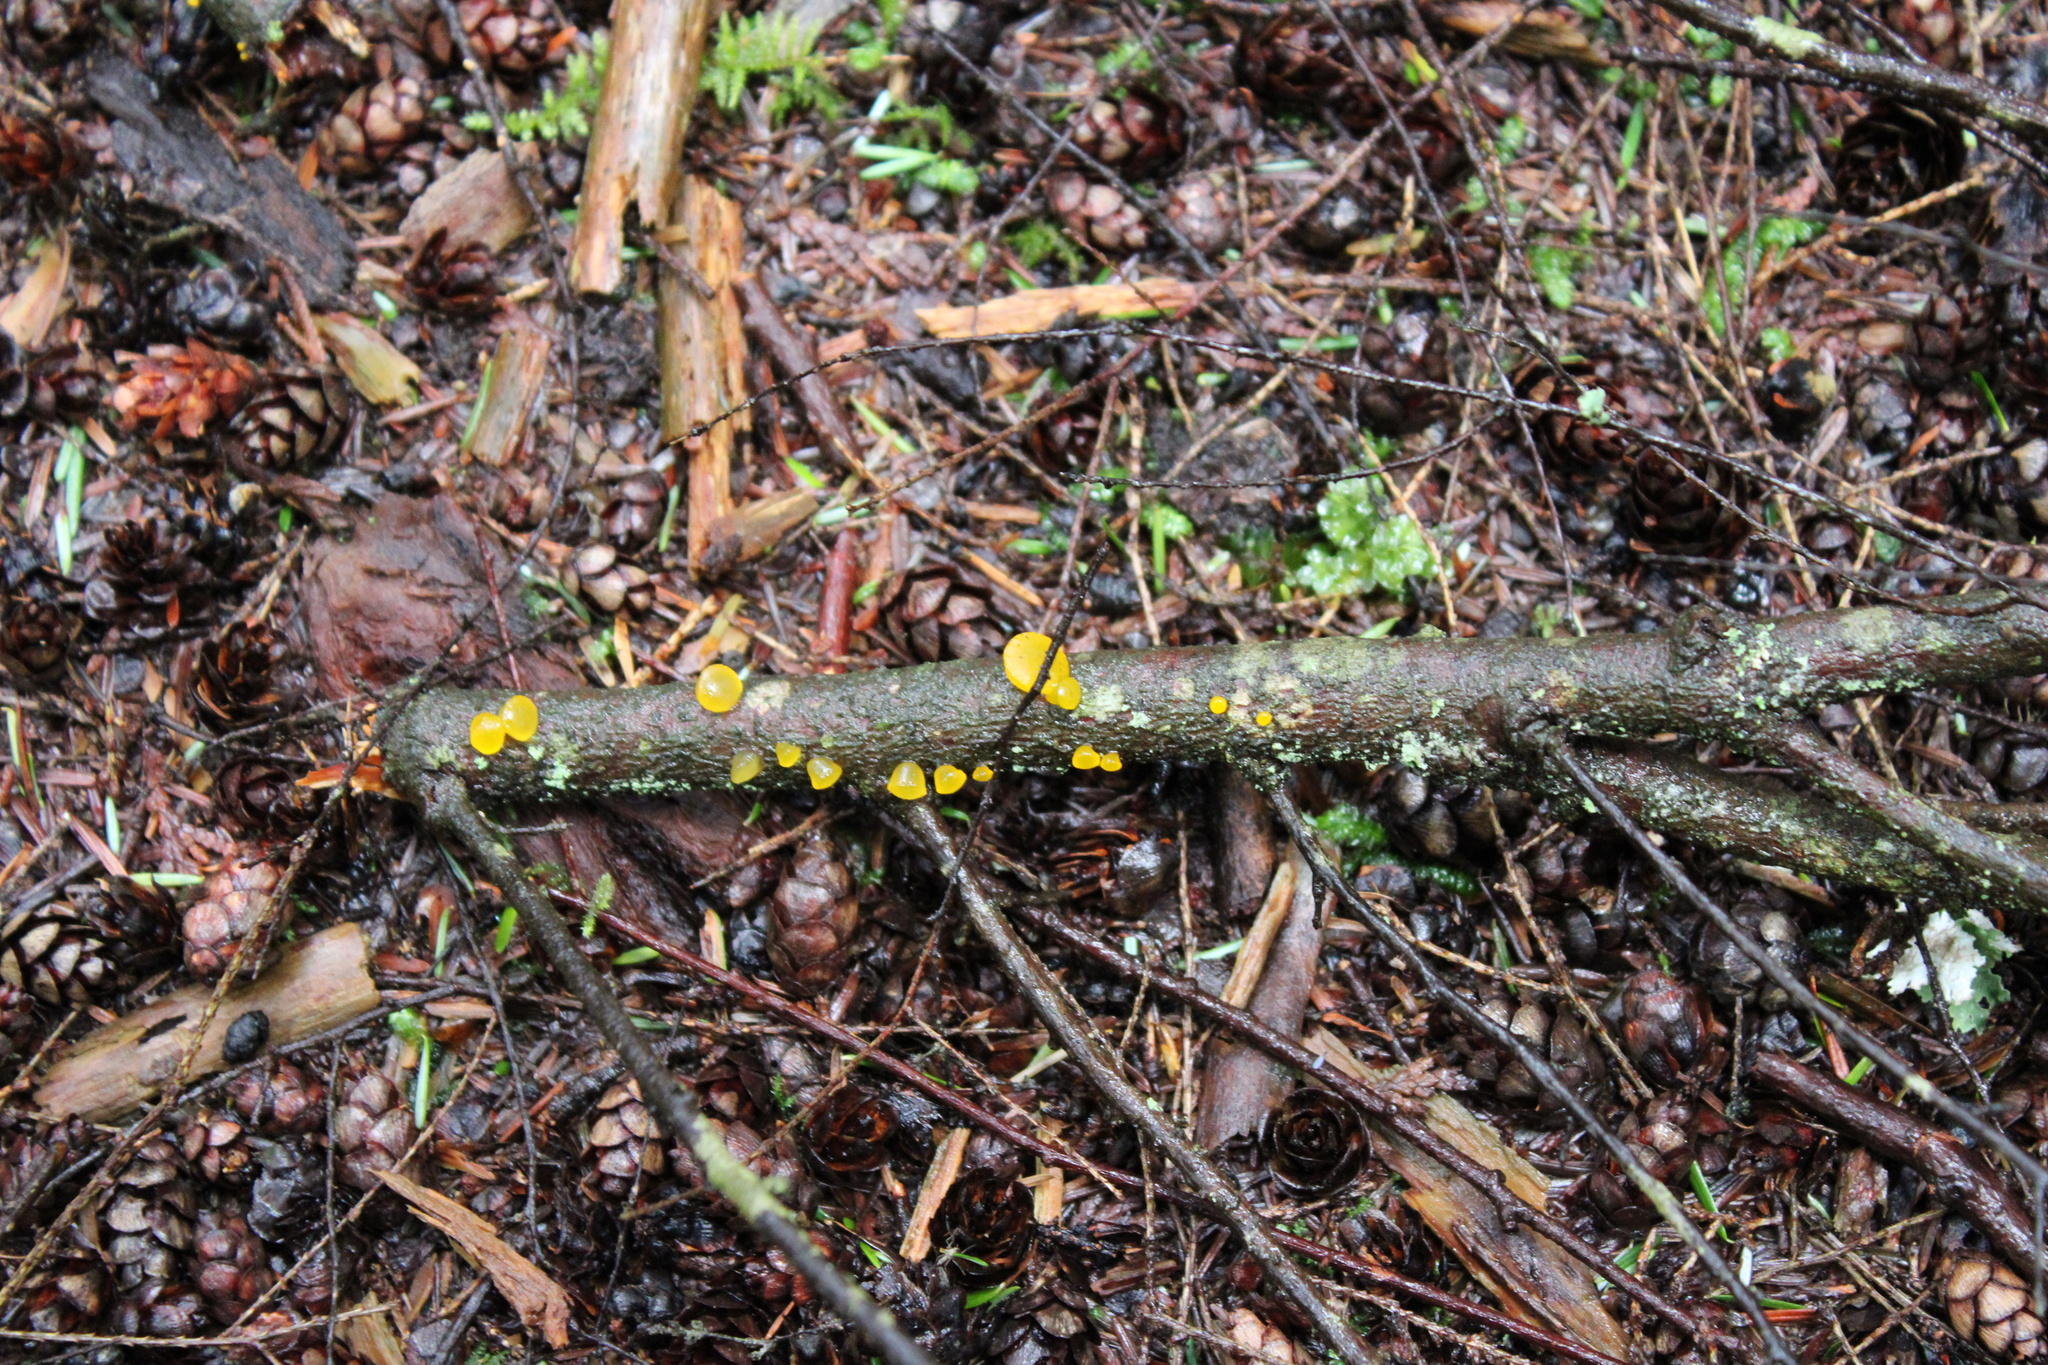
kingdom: Fungi
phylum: Basidiomycota
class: Dacrymycetes
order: Dacrymycetales
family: Dacrymycetaceae
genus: Guepiniopsis
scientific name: Guepiniopsis alpina
